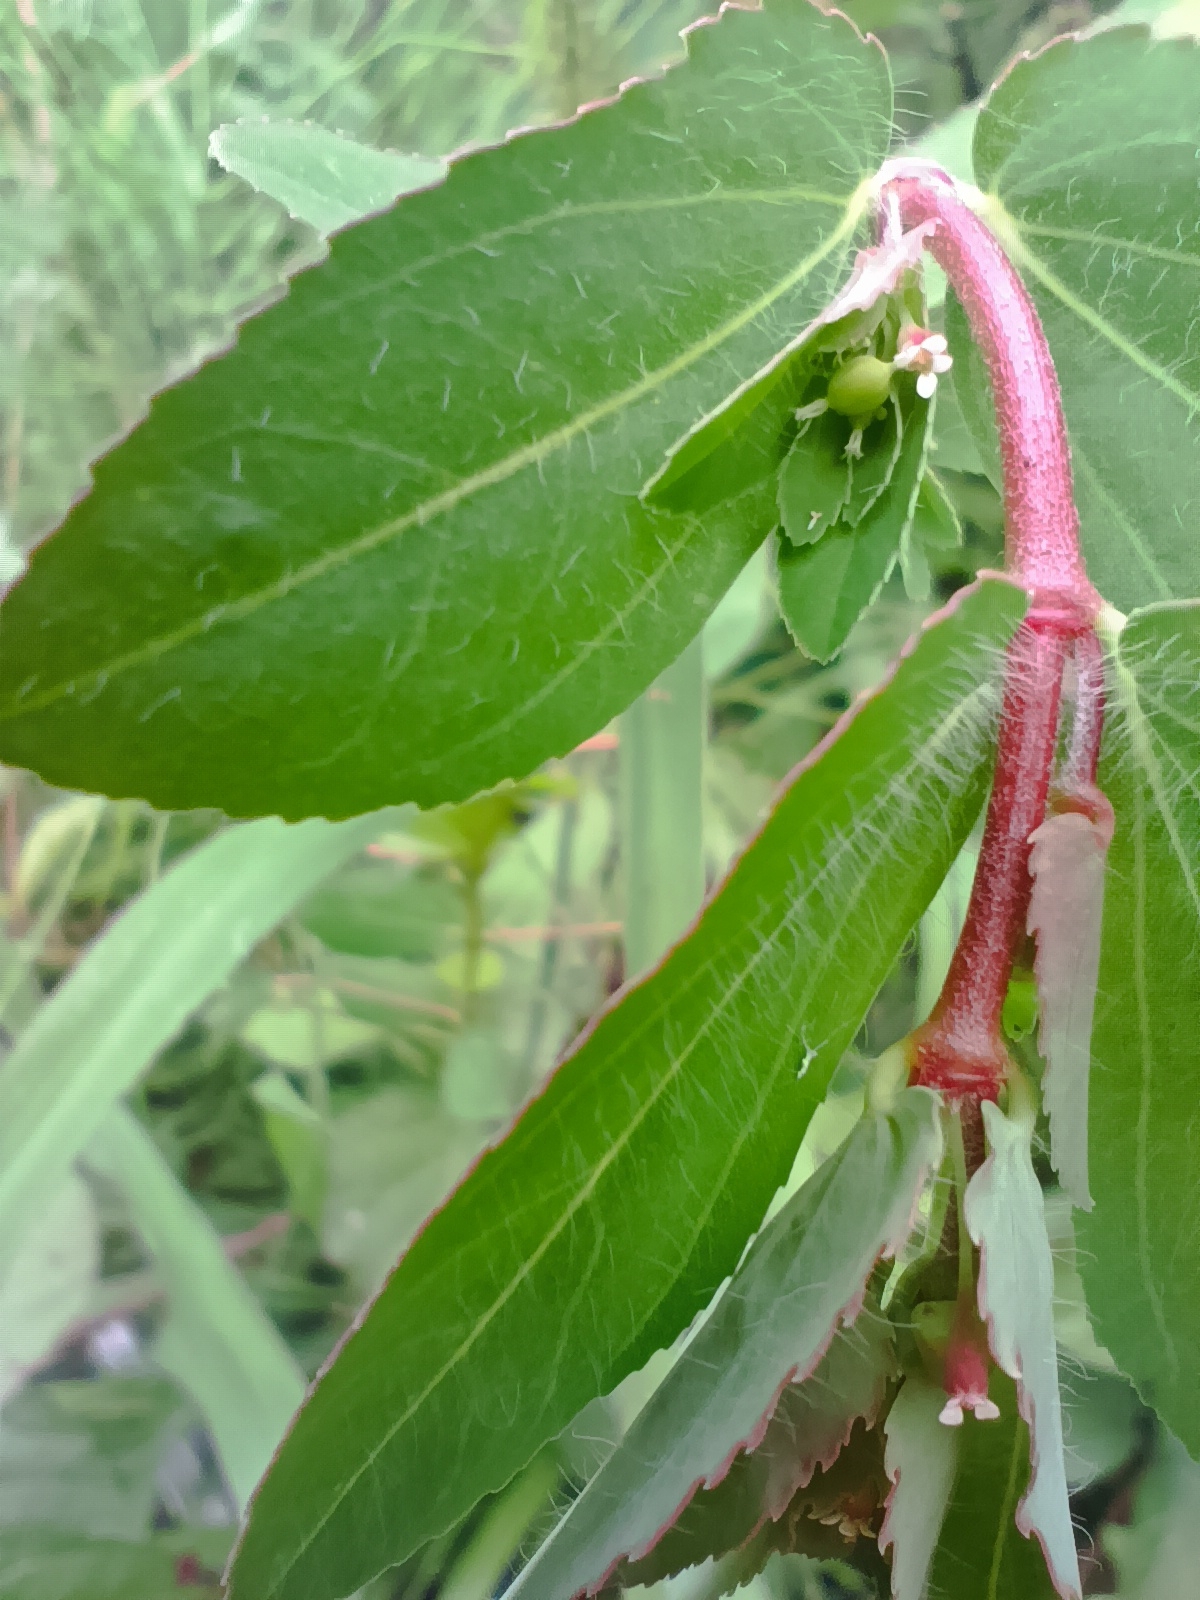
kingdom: Plantae
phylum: Tracheophyta
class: Magnoliopsida
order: Malpighiales
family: Euphorbiaceae
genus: Euphorbia
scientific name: Euphorbia nutans
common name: Eyebane
